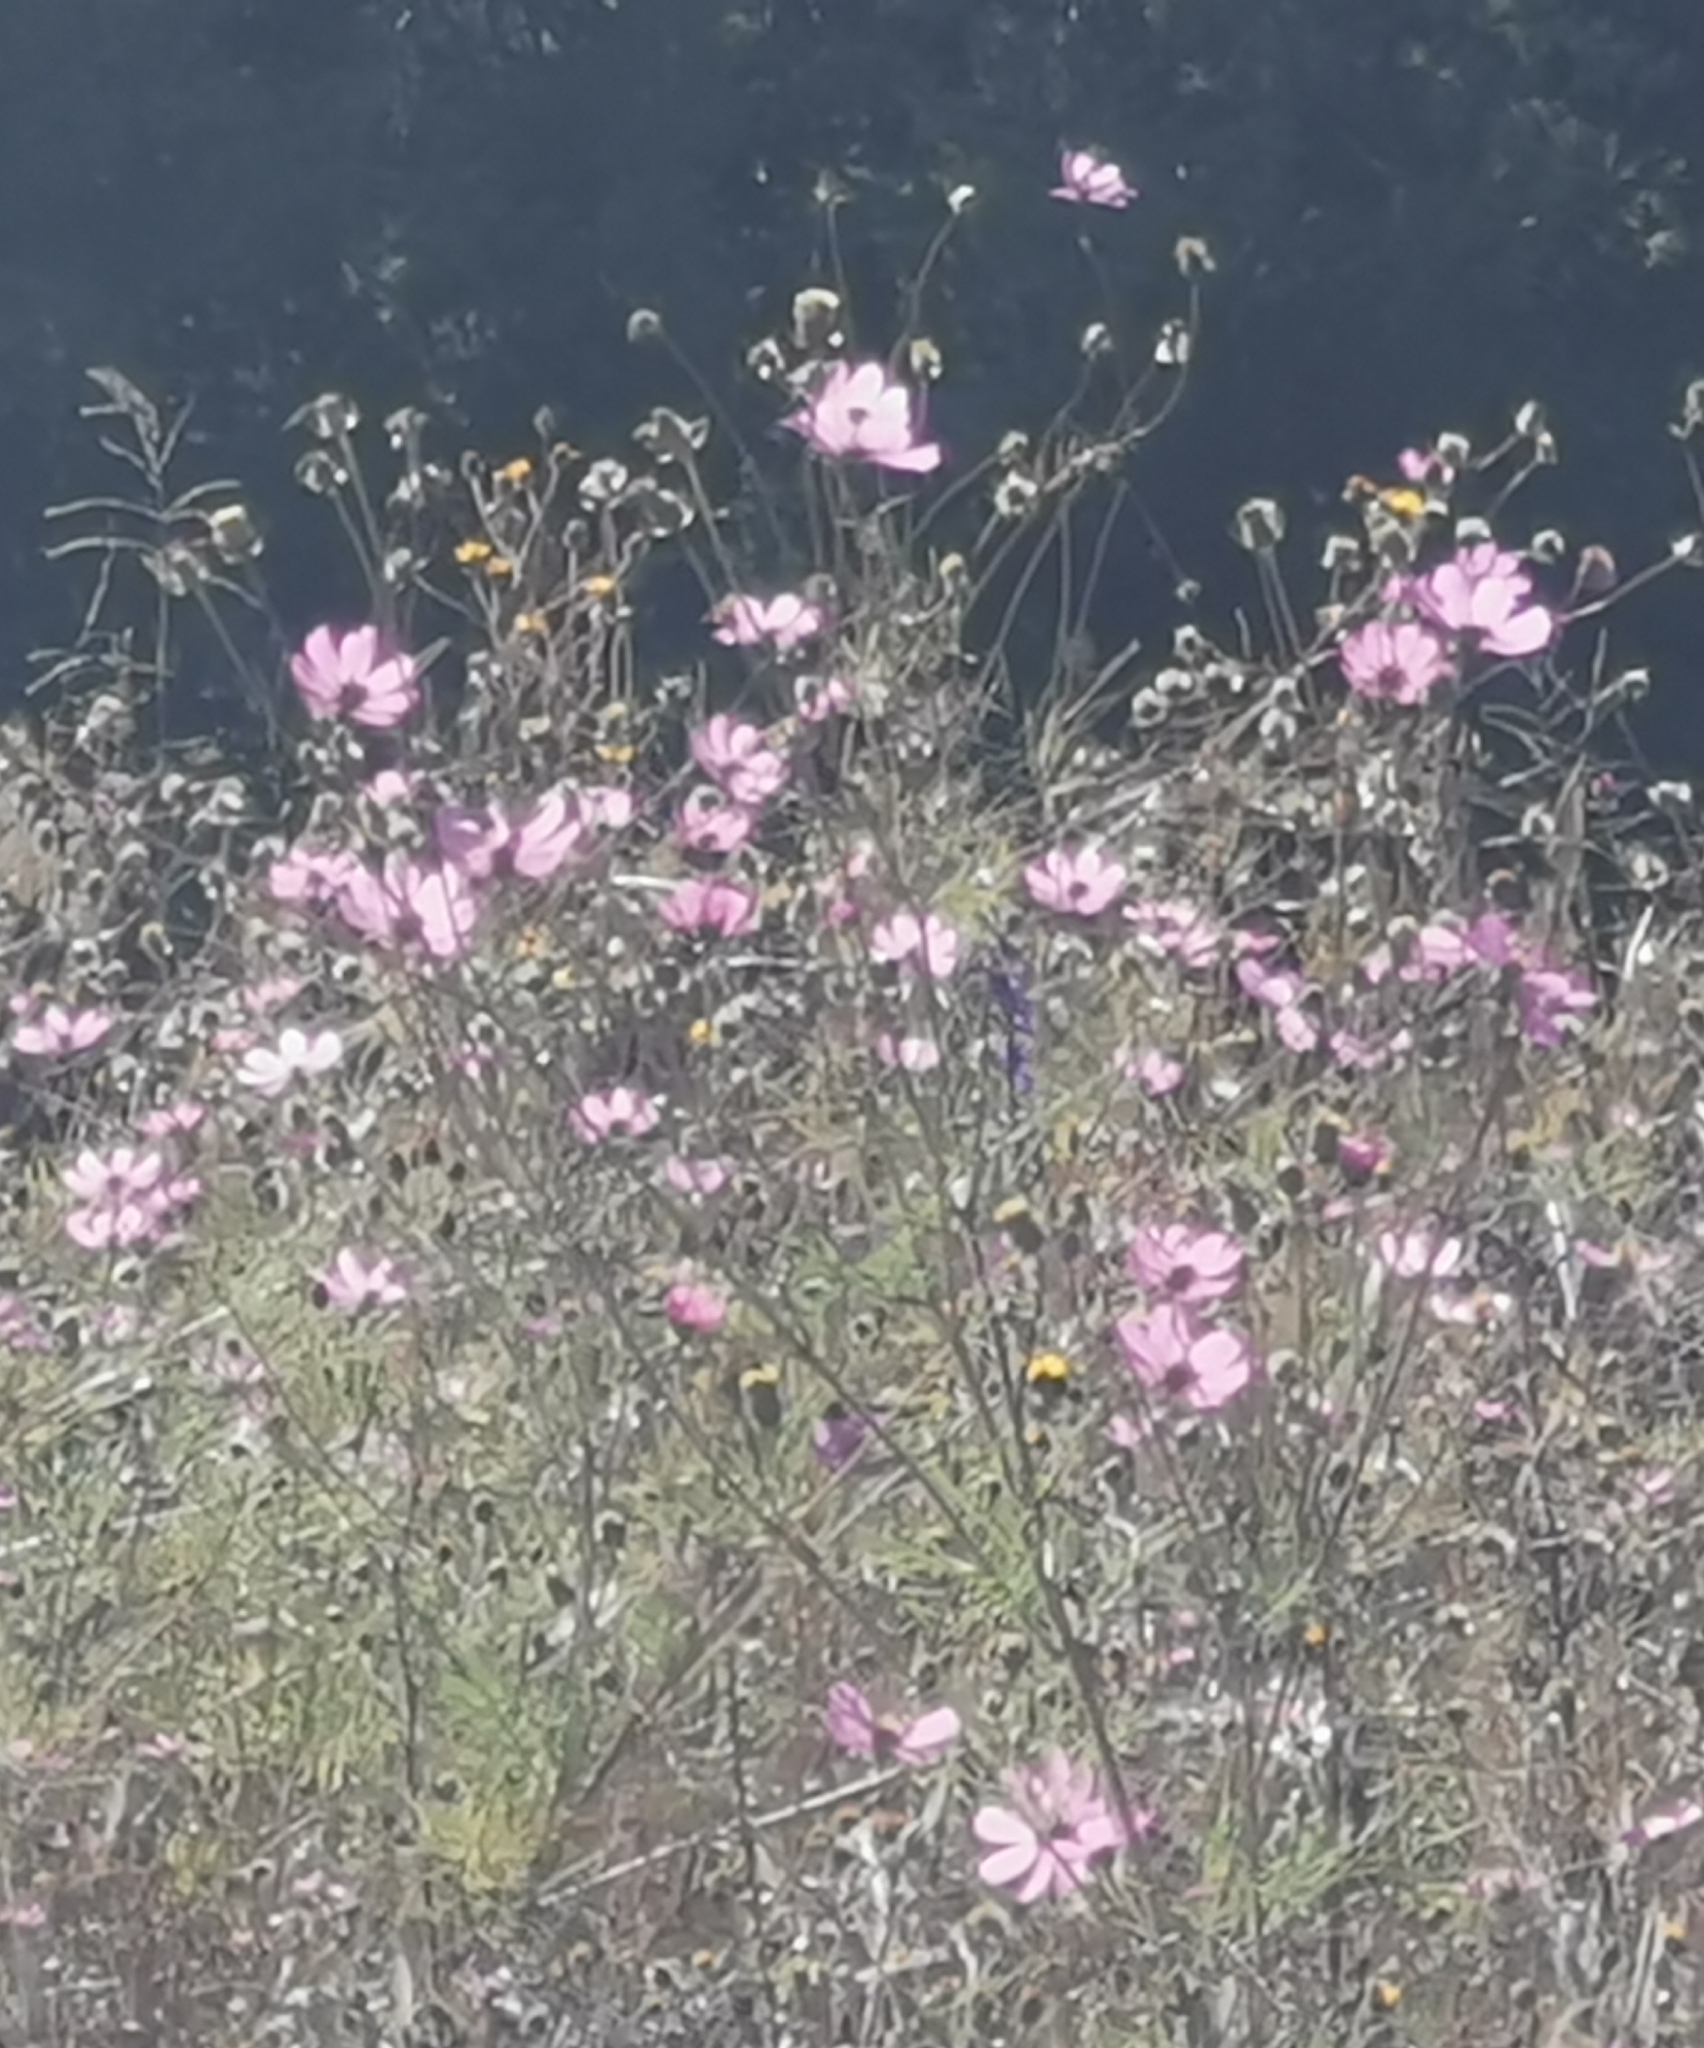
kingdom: Plantae
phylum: Tracheophyta
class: Magnoliopsida
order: Asterales
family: Asteraceae
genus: Cosmos
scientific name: Cosmos bipinnatus
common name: Garden cosmos
